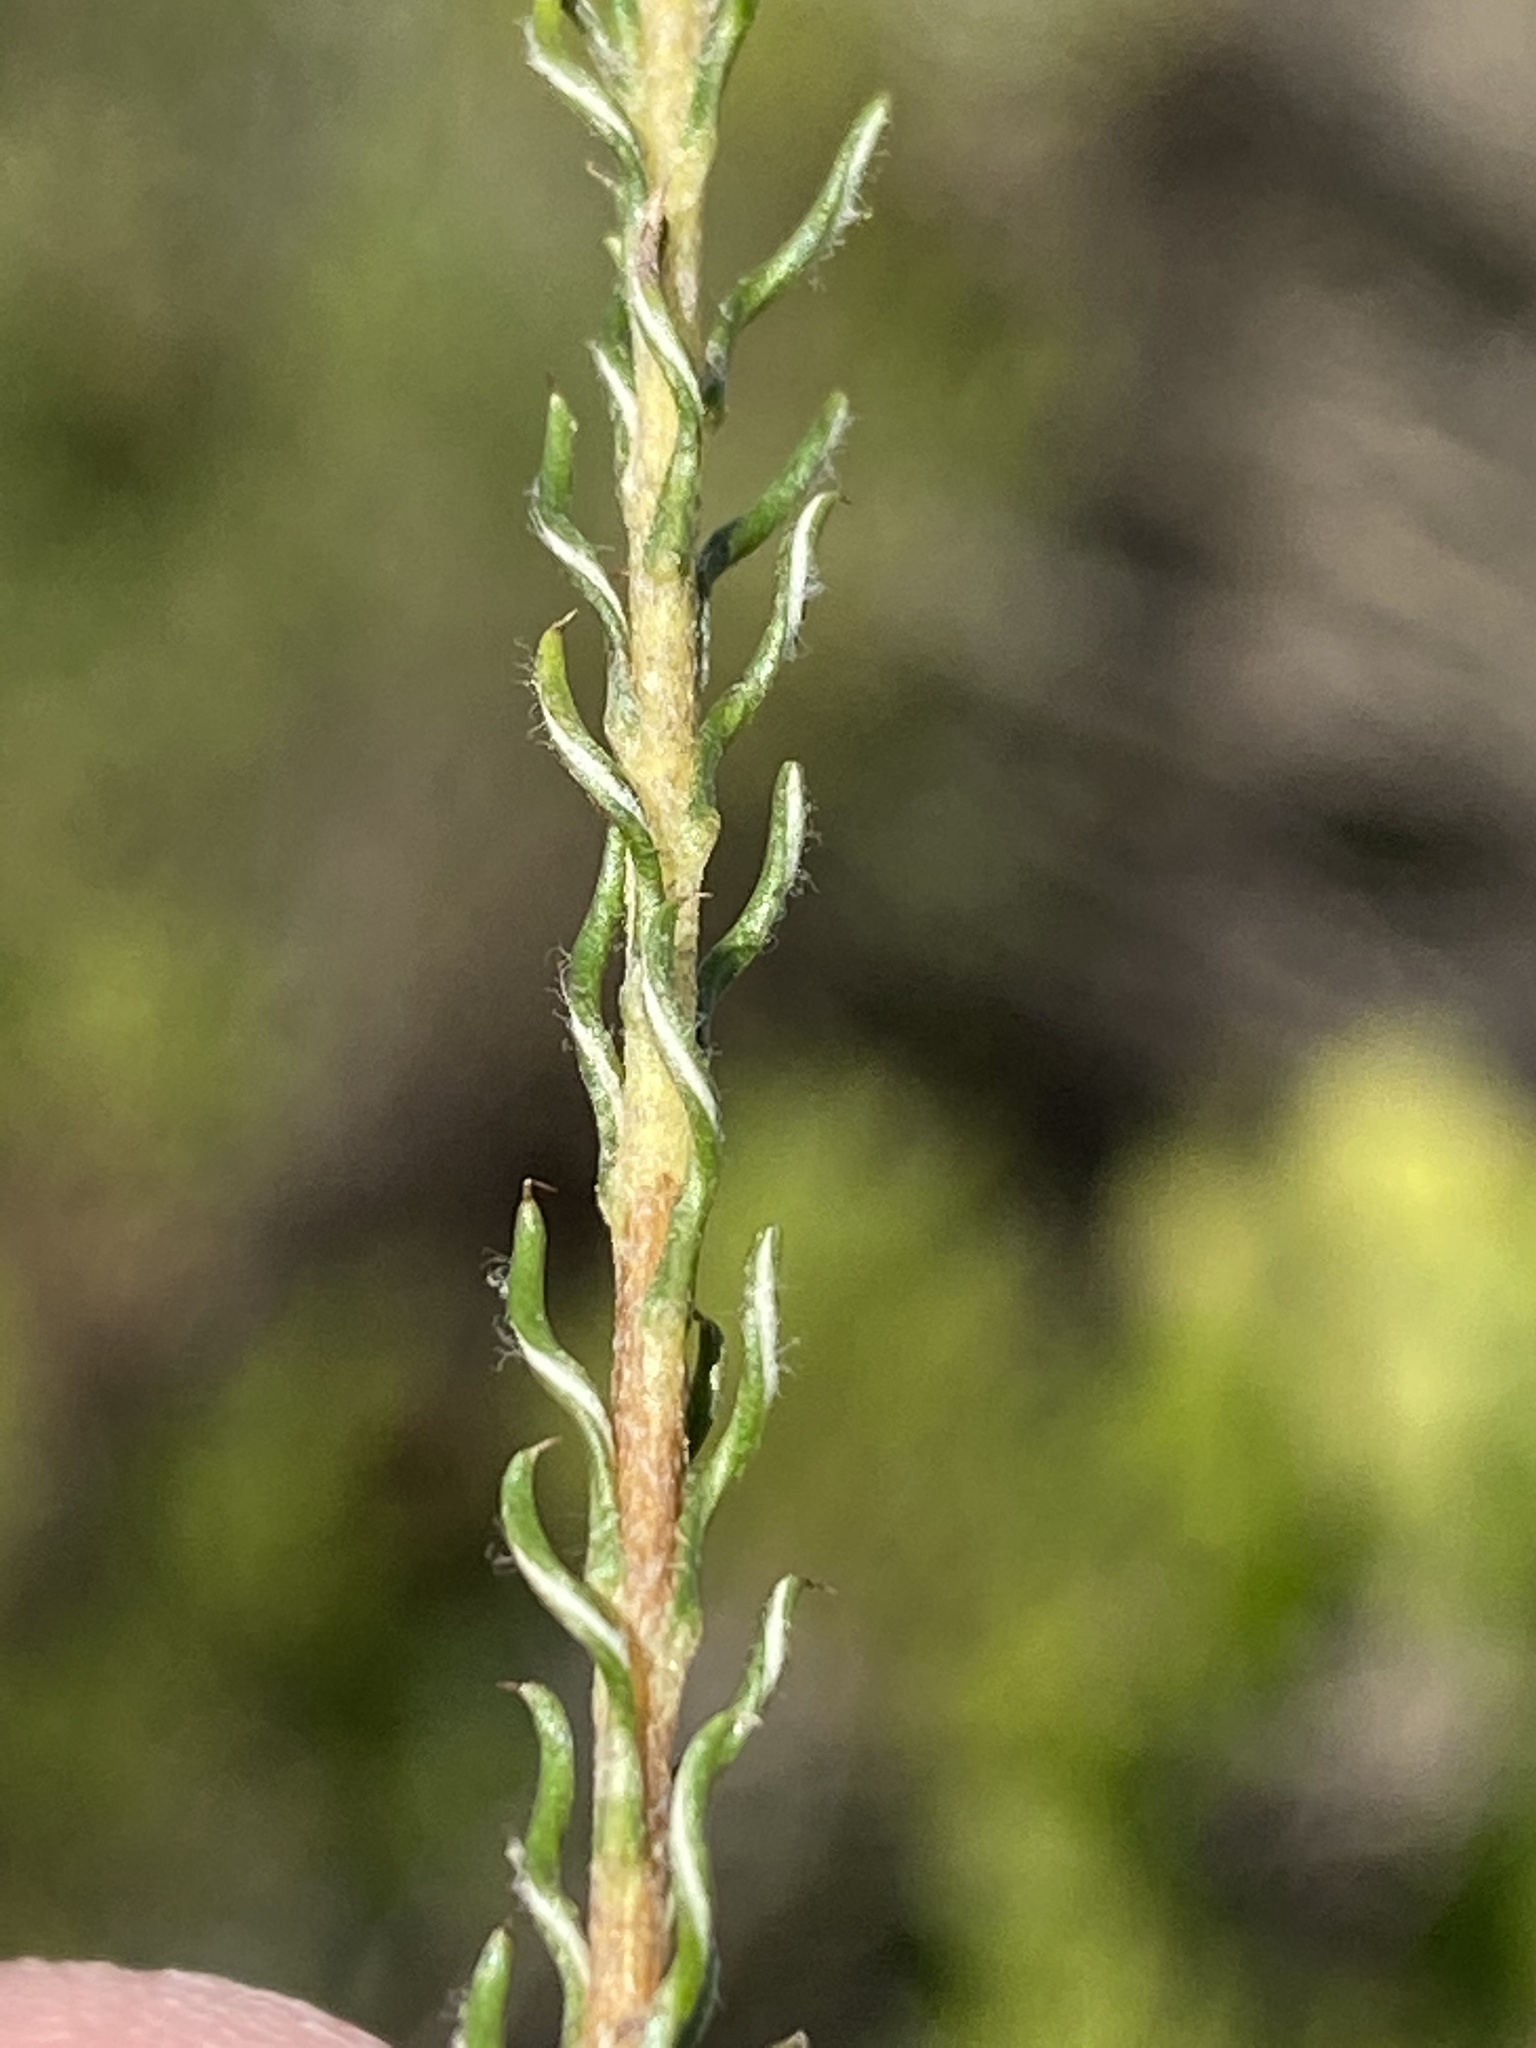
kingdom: Plantae
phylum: Tracheophyta
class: Magnoliopsida
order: Asterales
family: Asteraceae
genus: Disparago
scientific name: Disparago anomala
